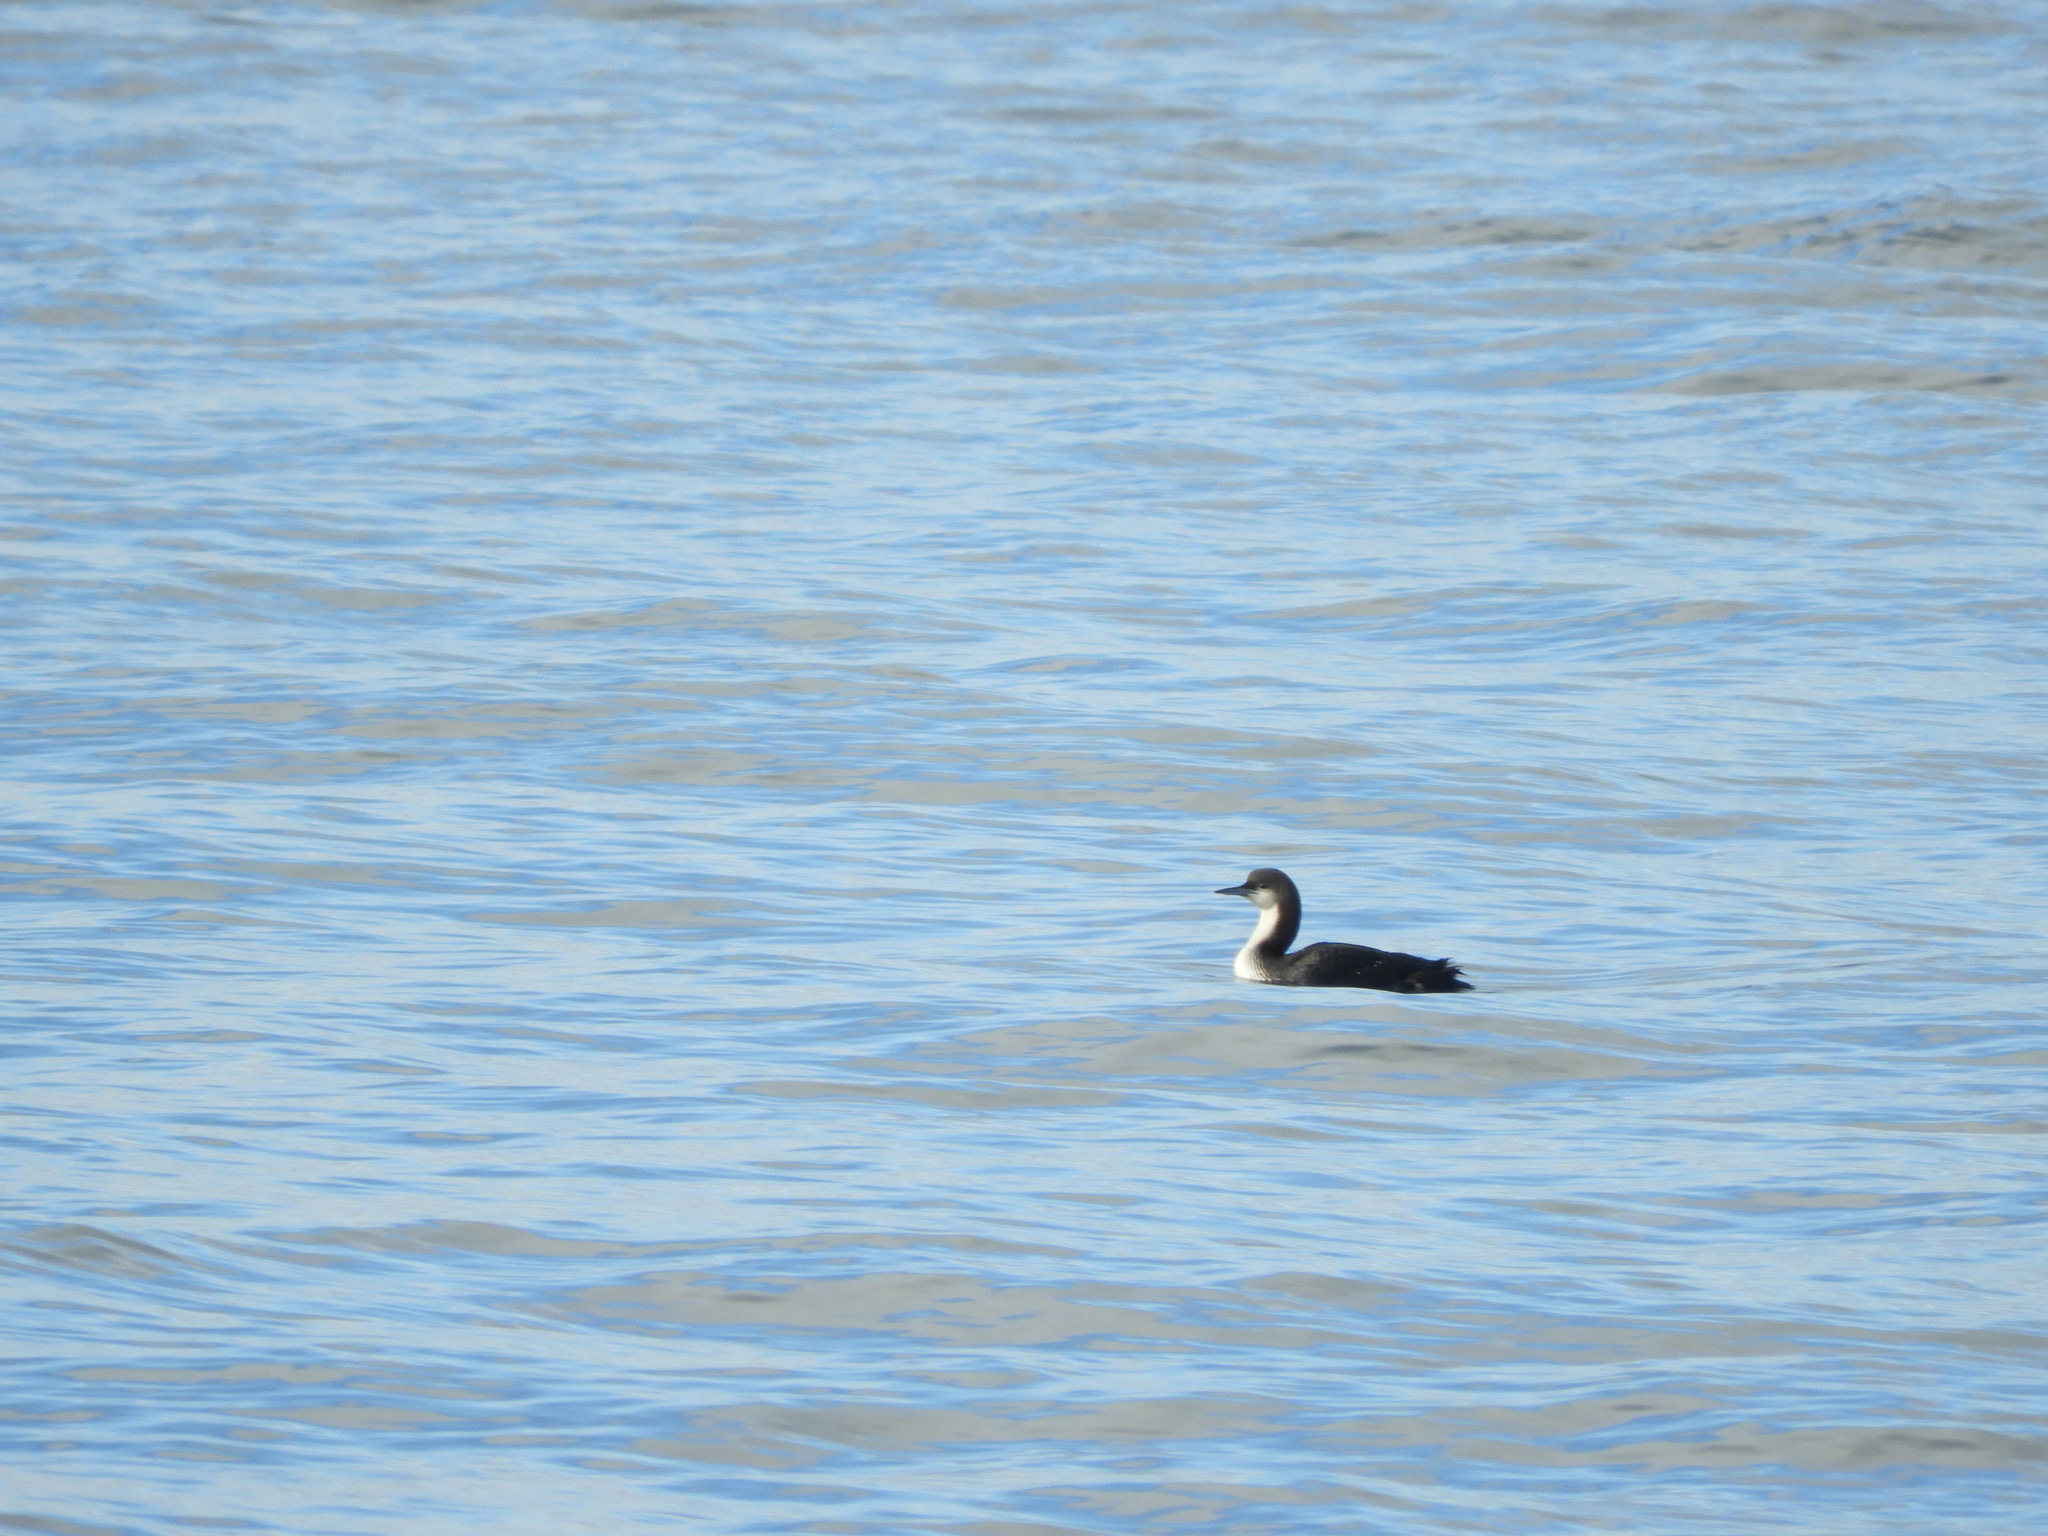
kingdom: Animalia
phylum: Chordata
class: Aves
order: Gaviiformes
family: Gaviidae
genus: Gavia
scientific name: Gavia pacifica
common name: Pacific loon
